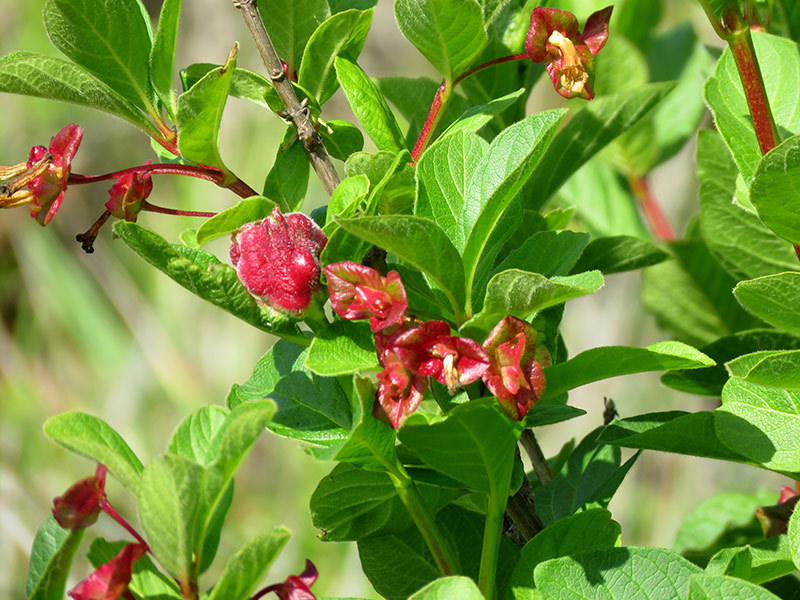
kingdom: Plantae
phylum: Tracheophyta
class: Magnoliopsida
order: Dipsacales
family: Caprifoliaceae
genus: Lonicera
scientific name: Lonicera involucrata
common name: Californian honeysuckle
